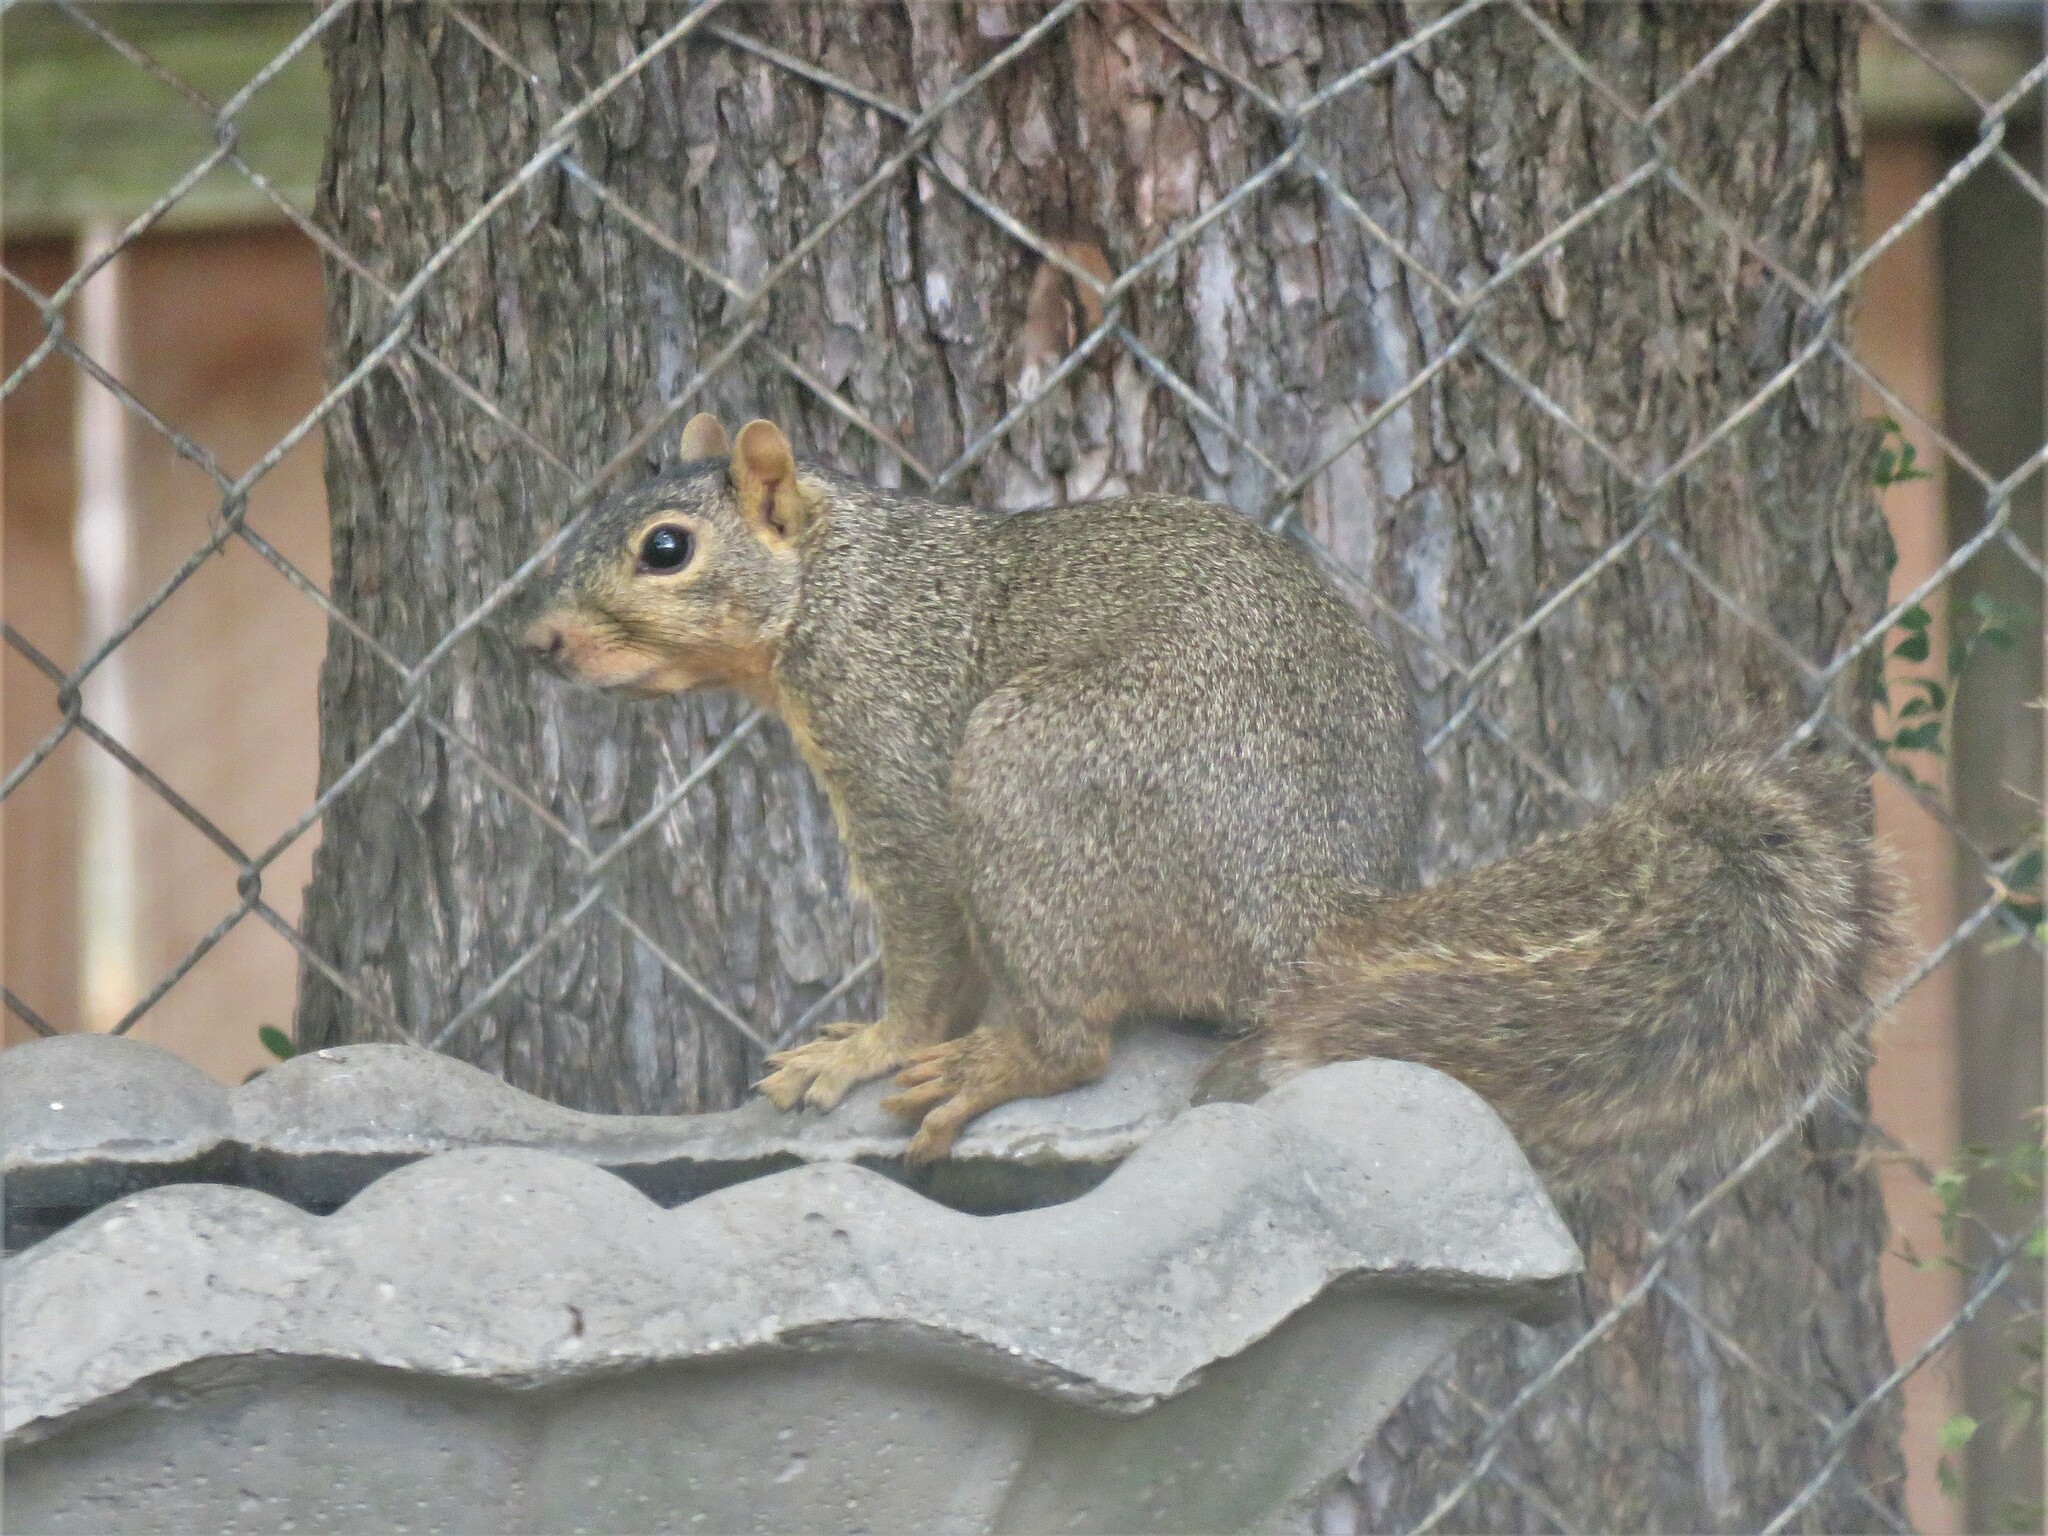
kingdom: Animalia
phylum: Chordata
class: Mammalia
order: Rodentia
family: Sciuridae
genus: Sciurus
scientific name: Sciurus niger
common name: Fox squirrel
